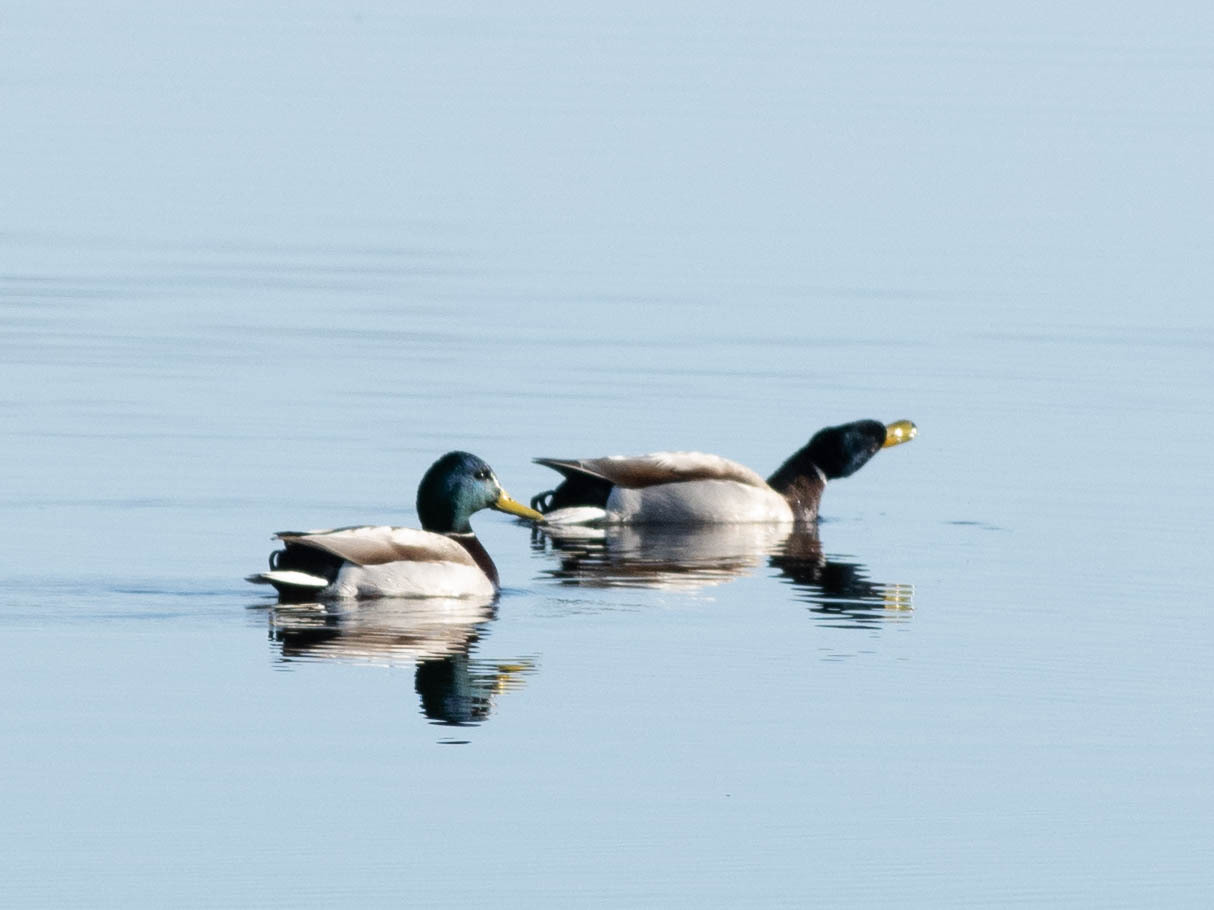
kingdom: Animalia
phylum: Chordata
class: Aves
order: Anseriformes
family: Anatidae
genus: Anas
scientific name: Anas platyrhynchos
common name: Mallard
